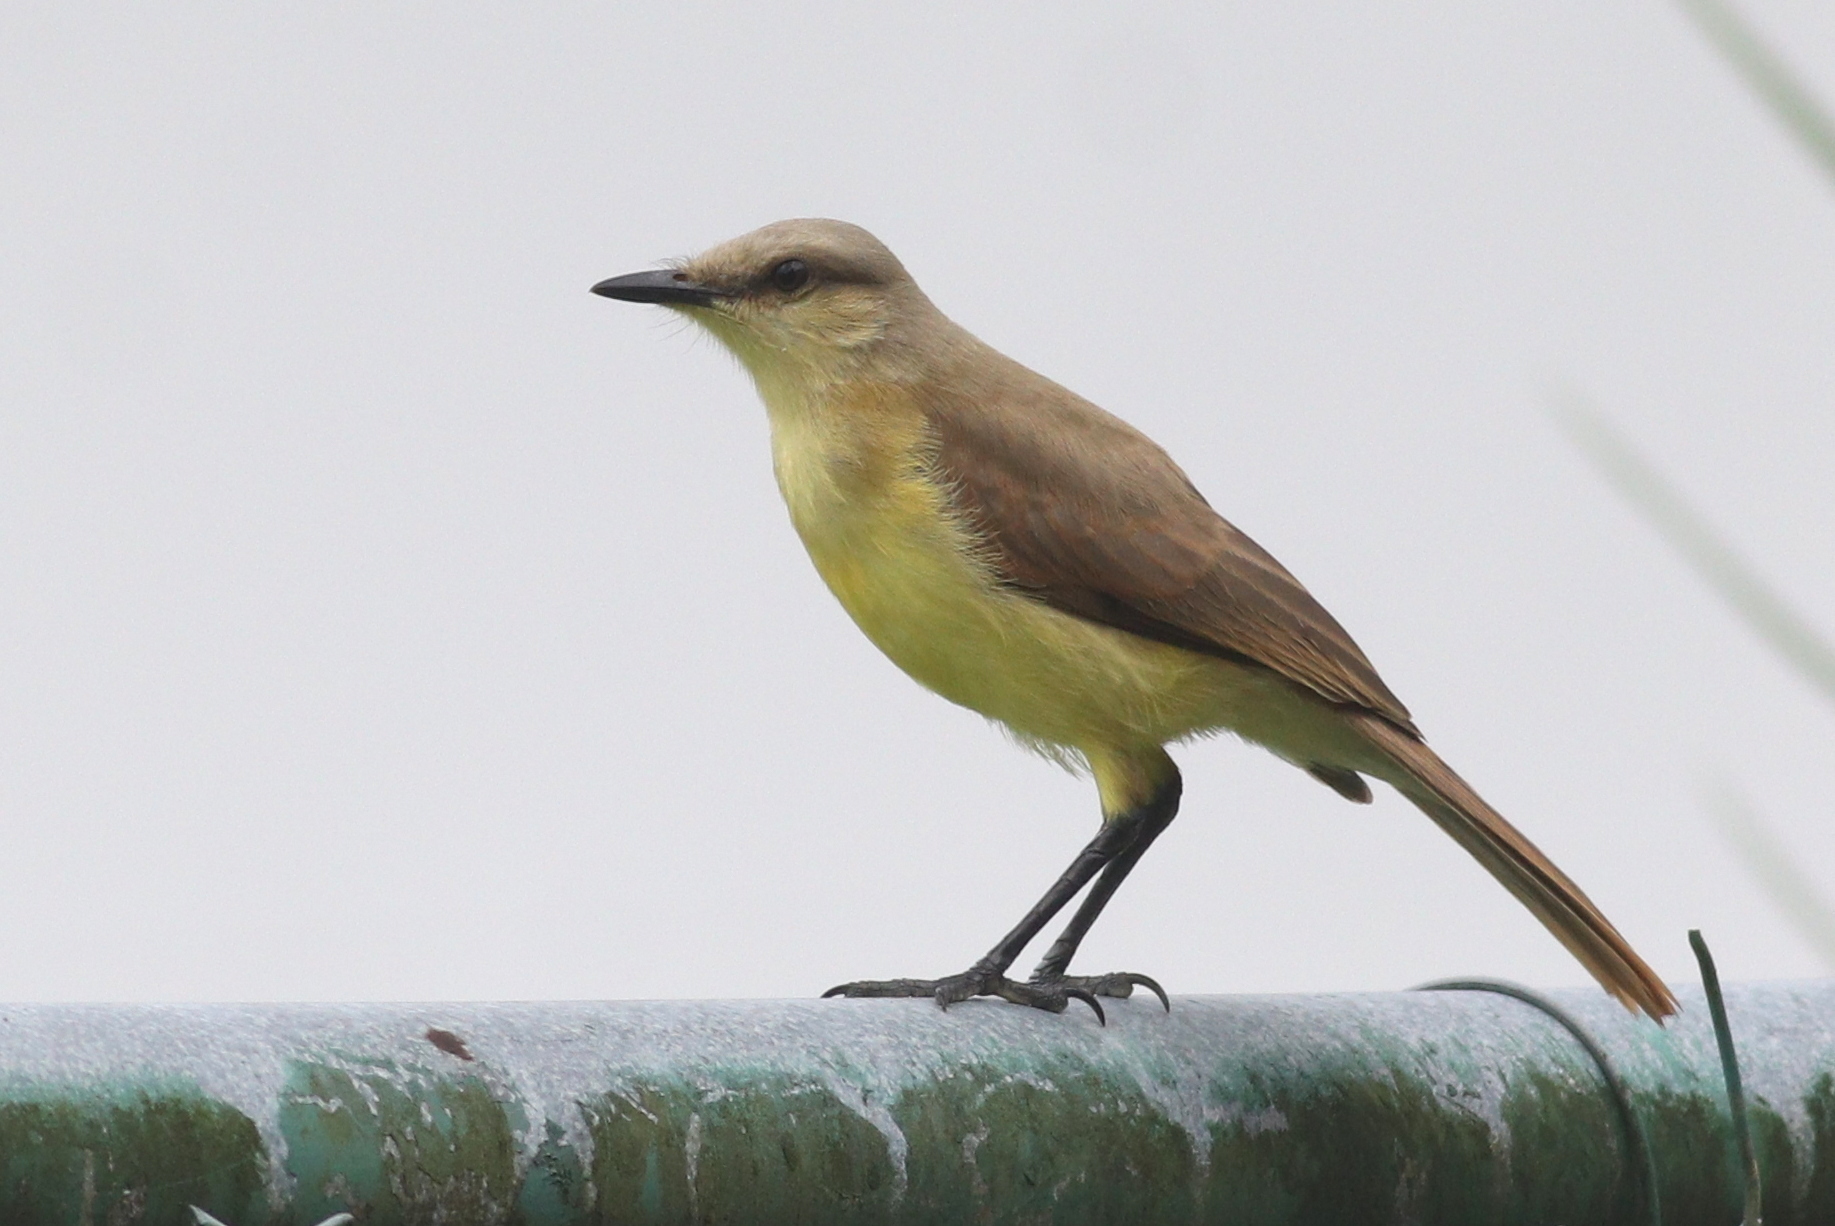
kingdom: Animalia
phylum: Chordata
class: Aves
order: Passeriformes
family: Tyrannidae
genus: Machetornis
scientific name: Machetornis rixosa
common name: Cattle tyrant
